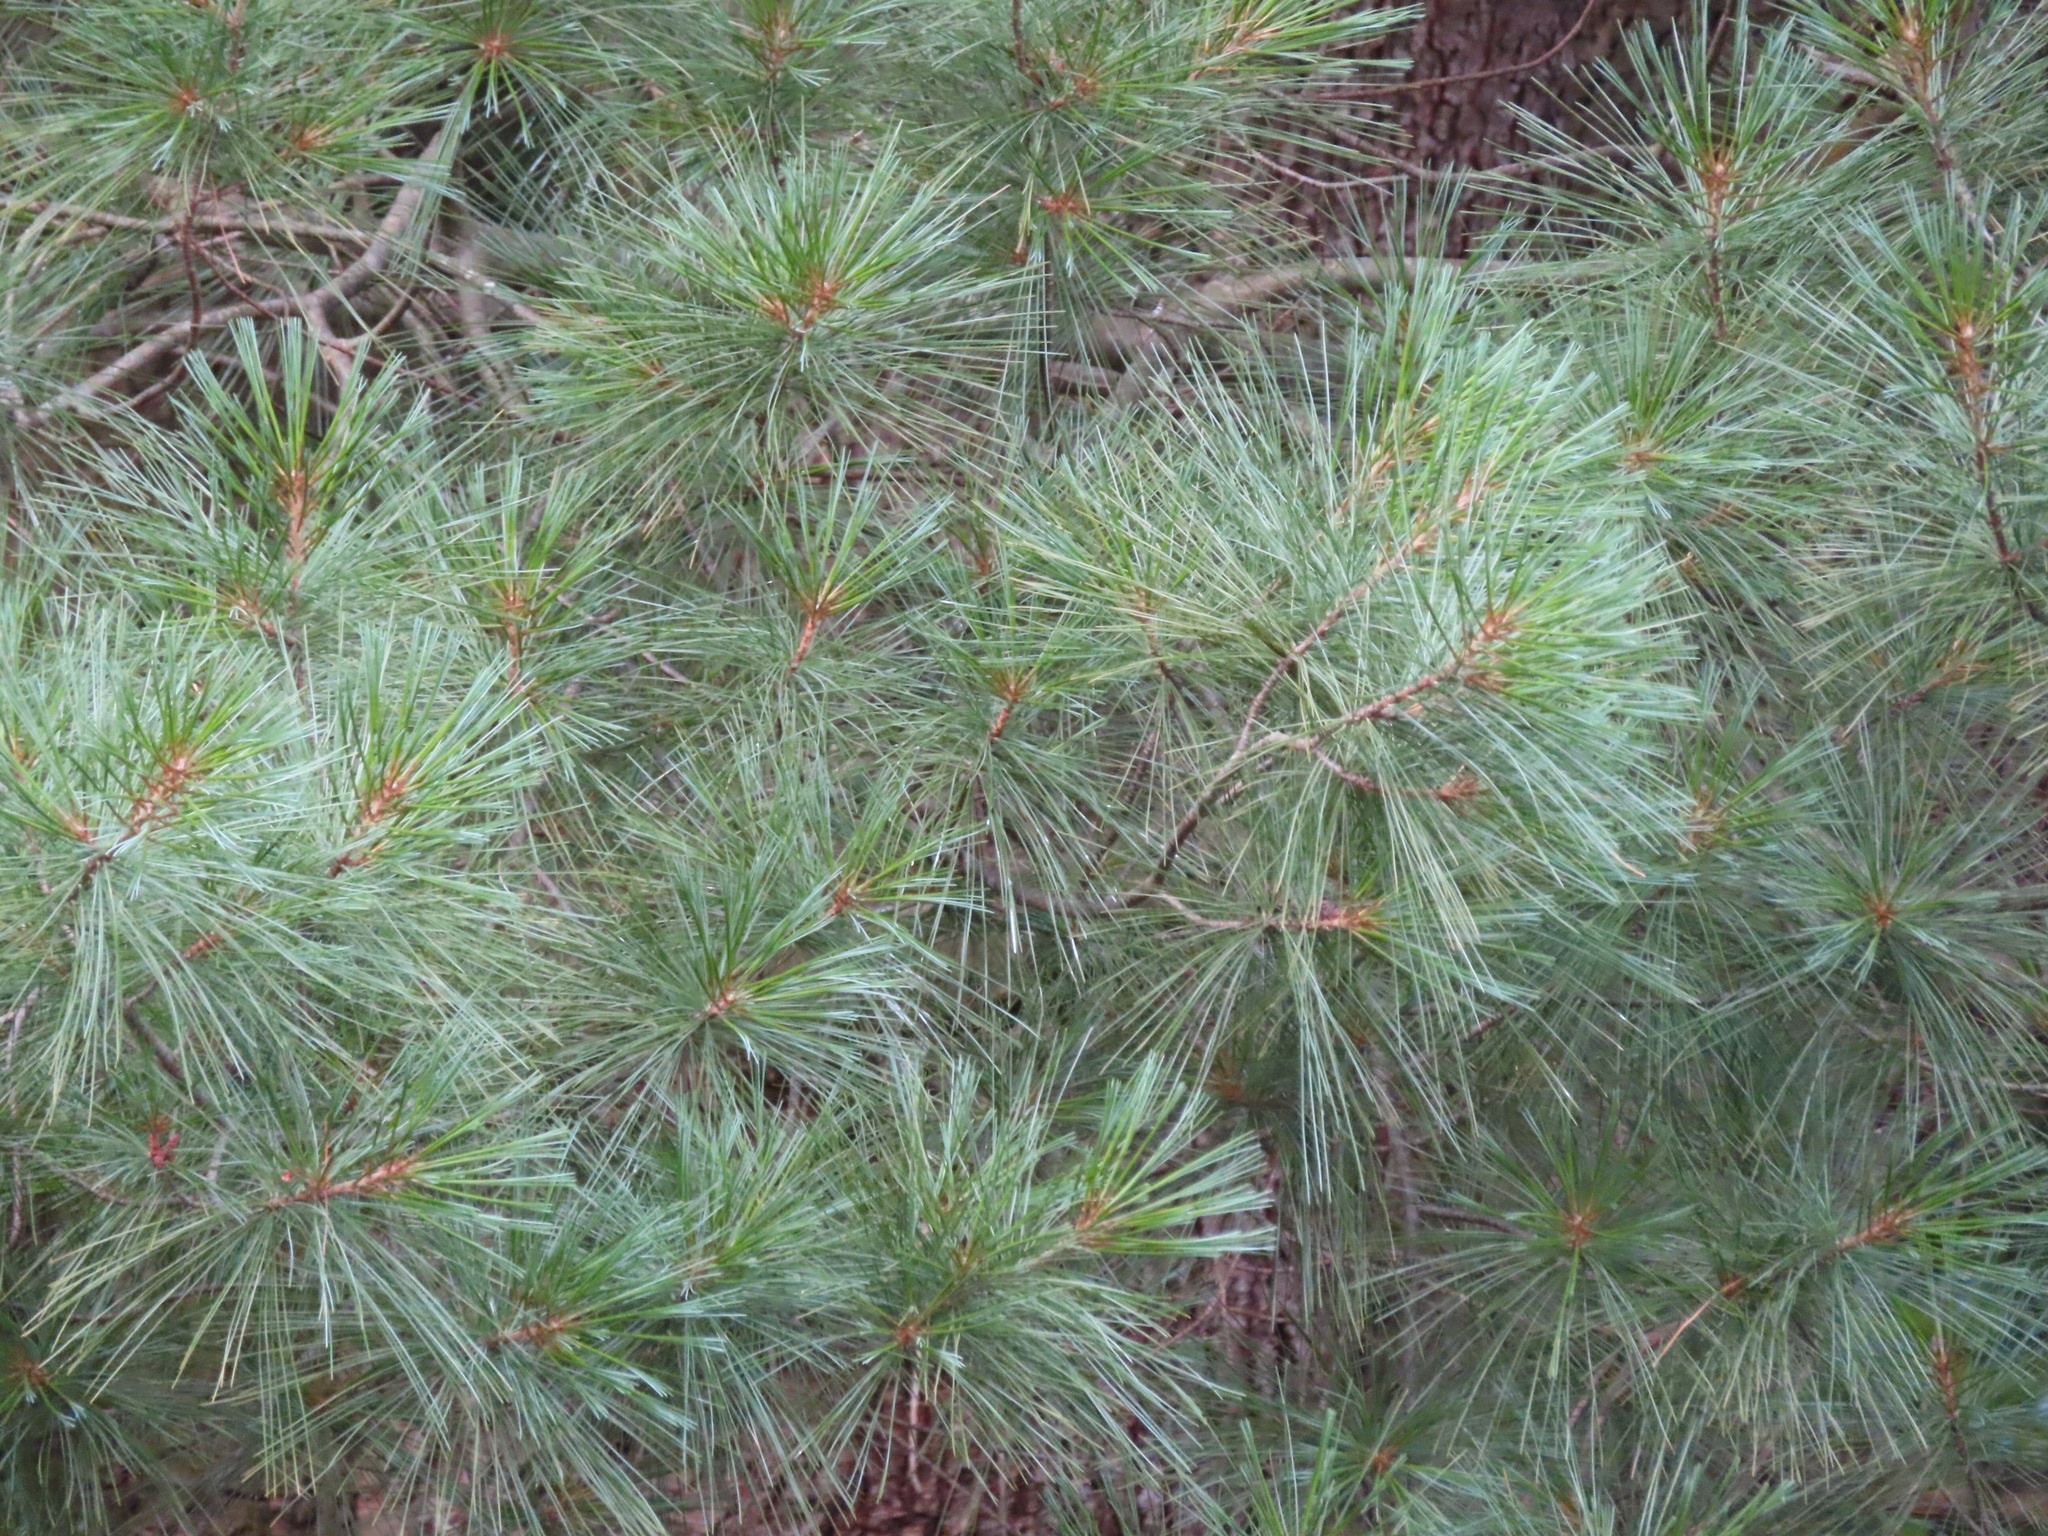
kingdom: Plantae
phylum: Tracheophyta
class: Pinopsida
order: Pinales
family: Pinaceae
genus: Pinus
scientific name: Pinus strobus
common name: Weymouth pine
